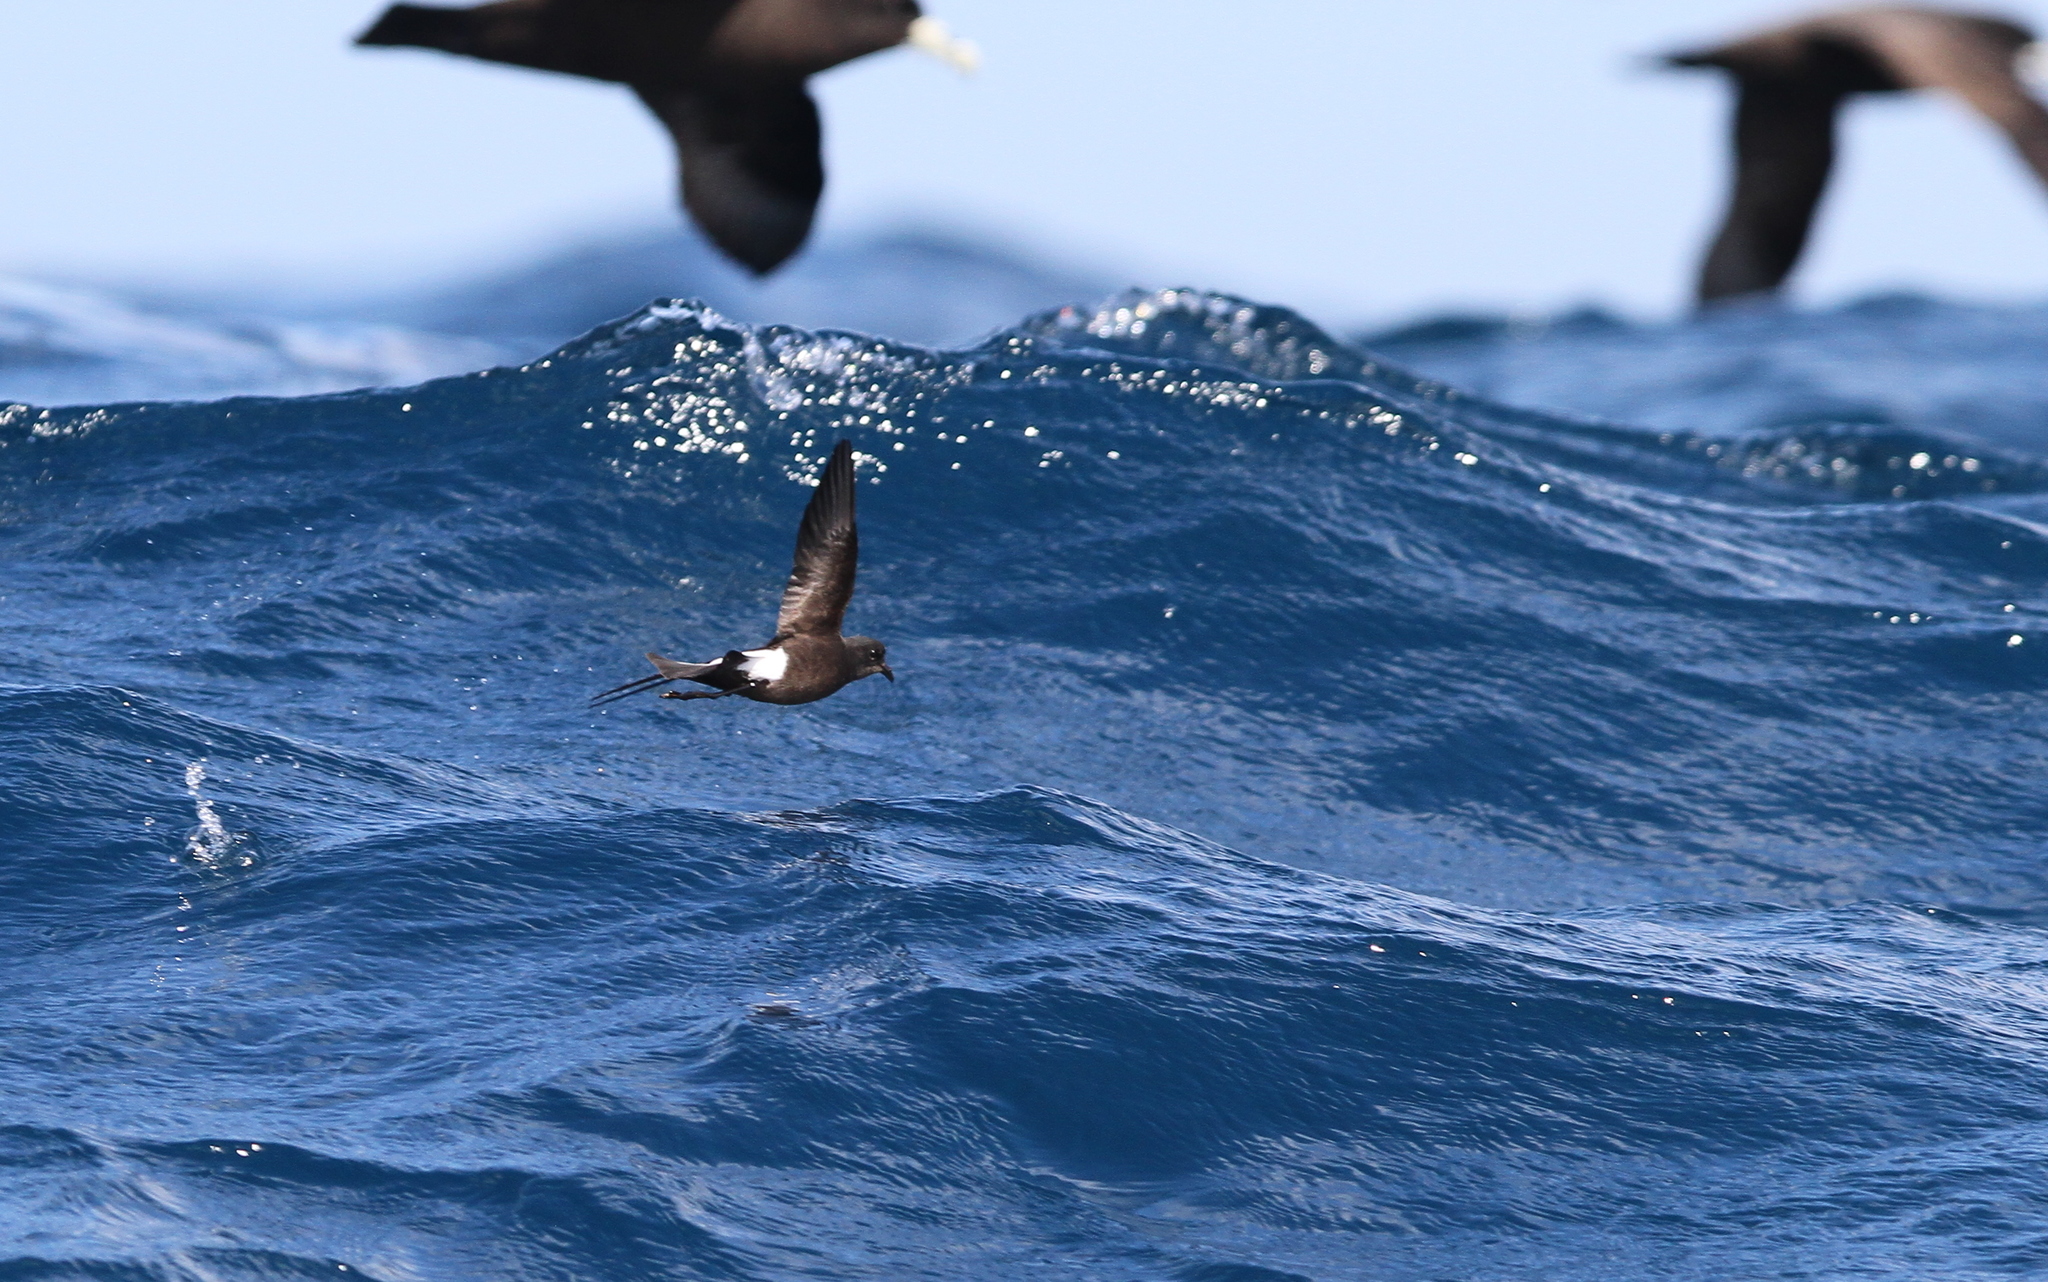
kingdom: Animalia
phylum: Chordata
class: Aves
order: Procellariiformes
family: Hydrobatidae
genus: Oceanites
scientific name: Oceanites oceanicus
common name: Wilson's storm petrel
